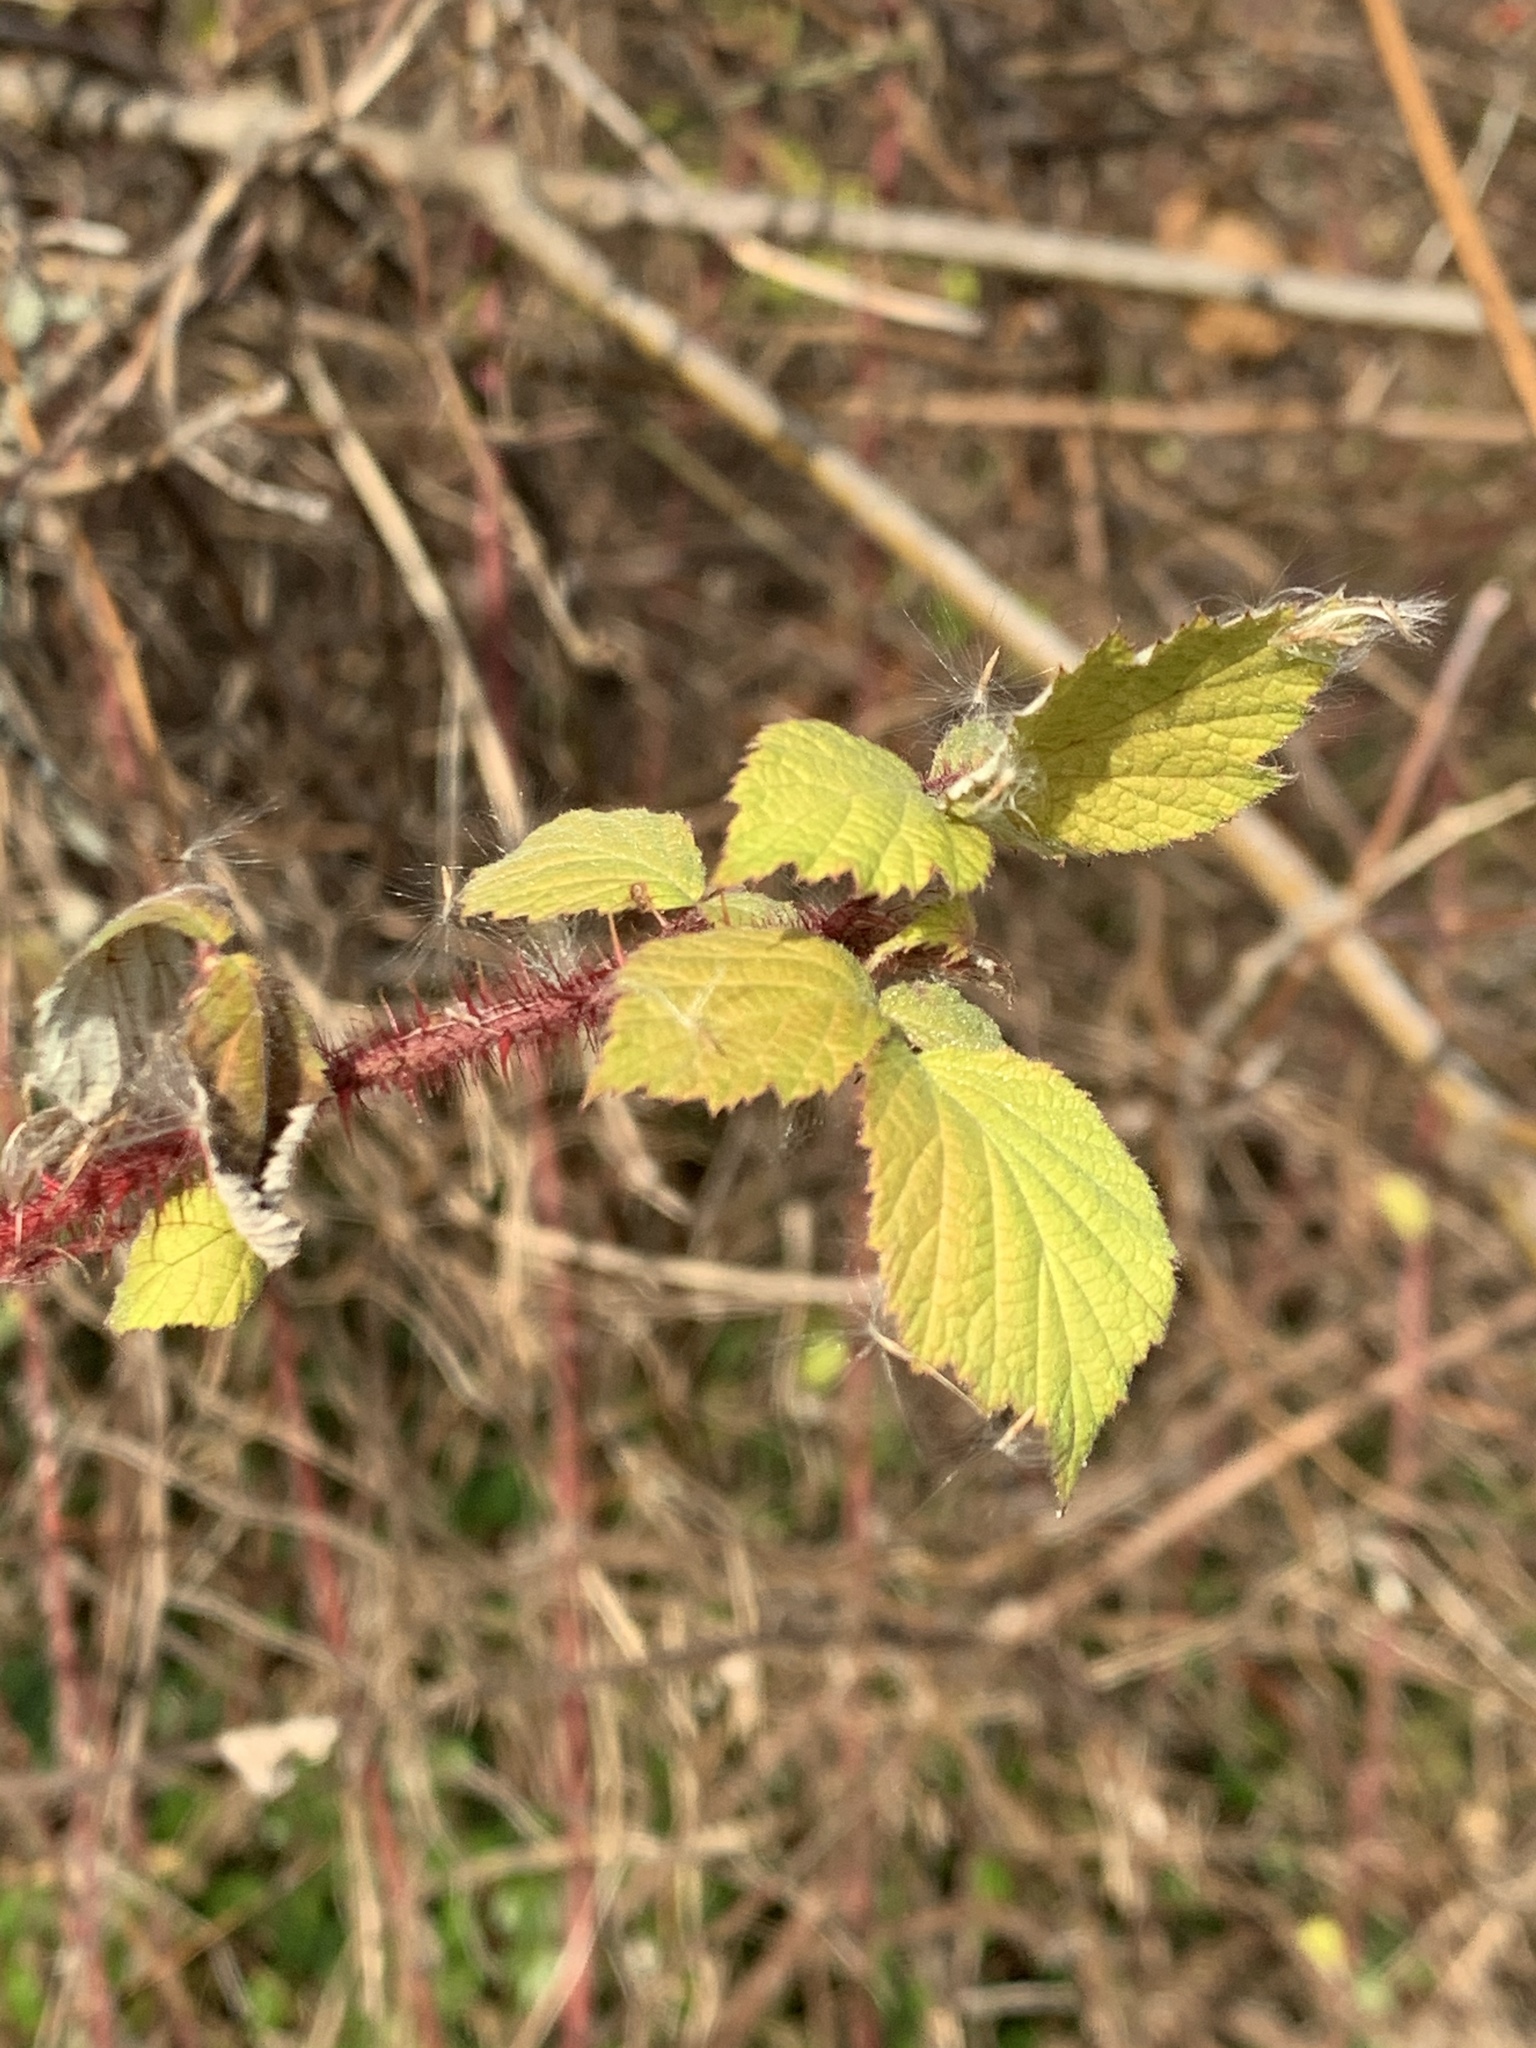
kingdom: Plantae
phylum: Tracheophyta
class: Magnoliopsida
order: Rosales
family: Rosaceae
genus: Rubus
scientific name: Rubus phoenicolasius
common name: Japanese wineberry
